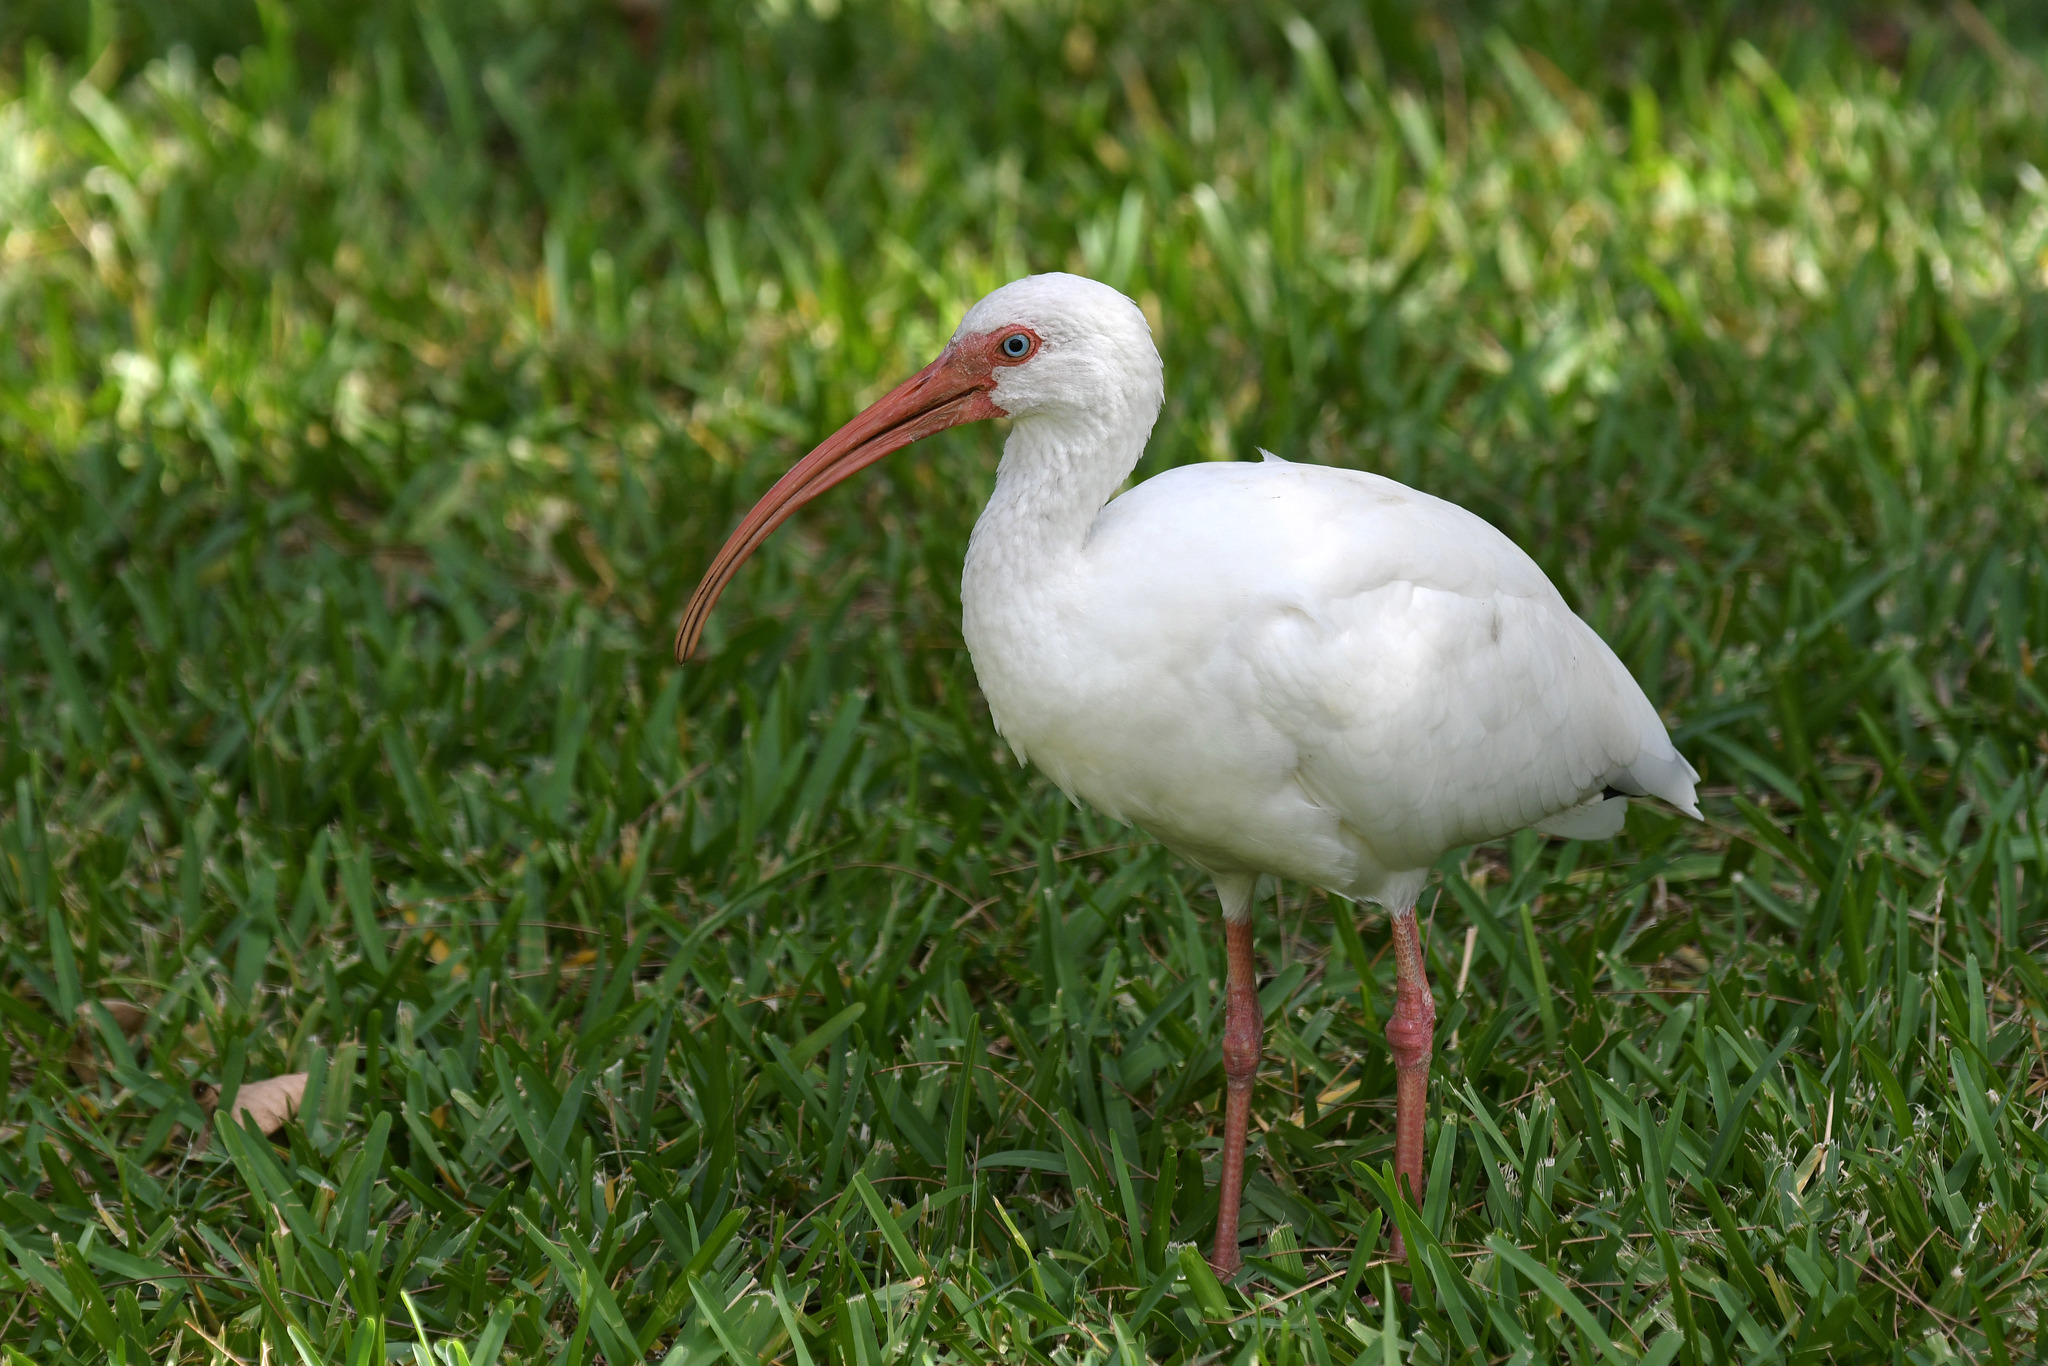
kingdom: Animalia
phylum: Chordata
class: Aves
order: Pelecaniformes
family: Threskiornithidae
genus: Eudocimus
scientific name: Eudocimus albus
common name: White ibis
